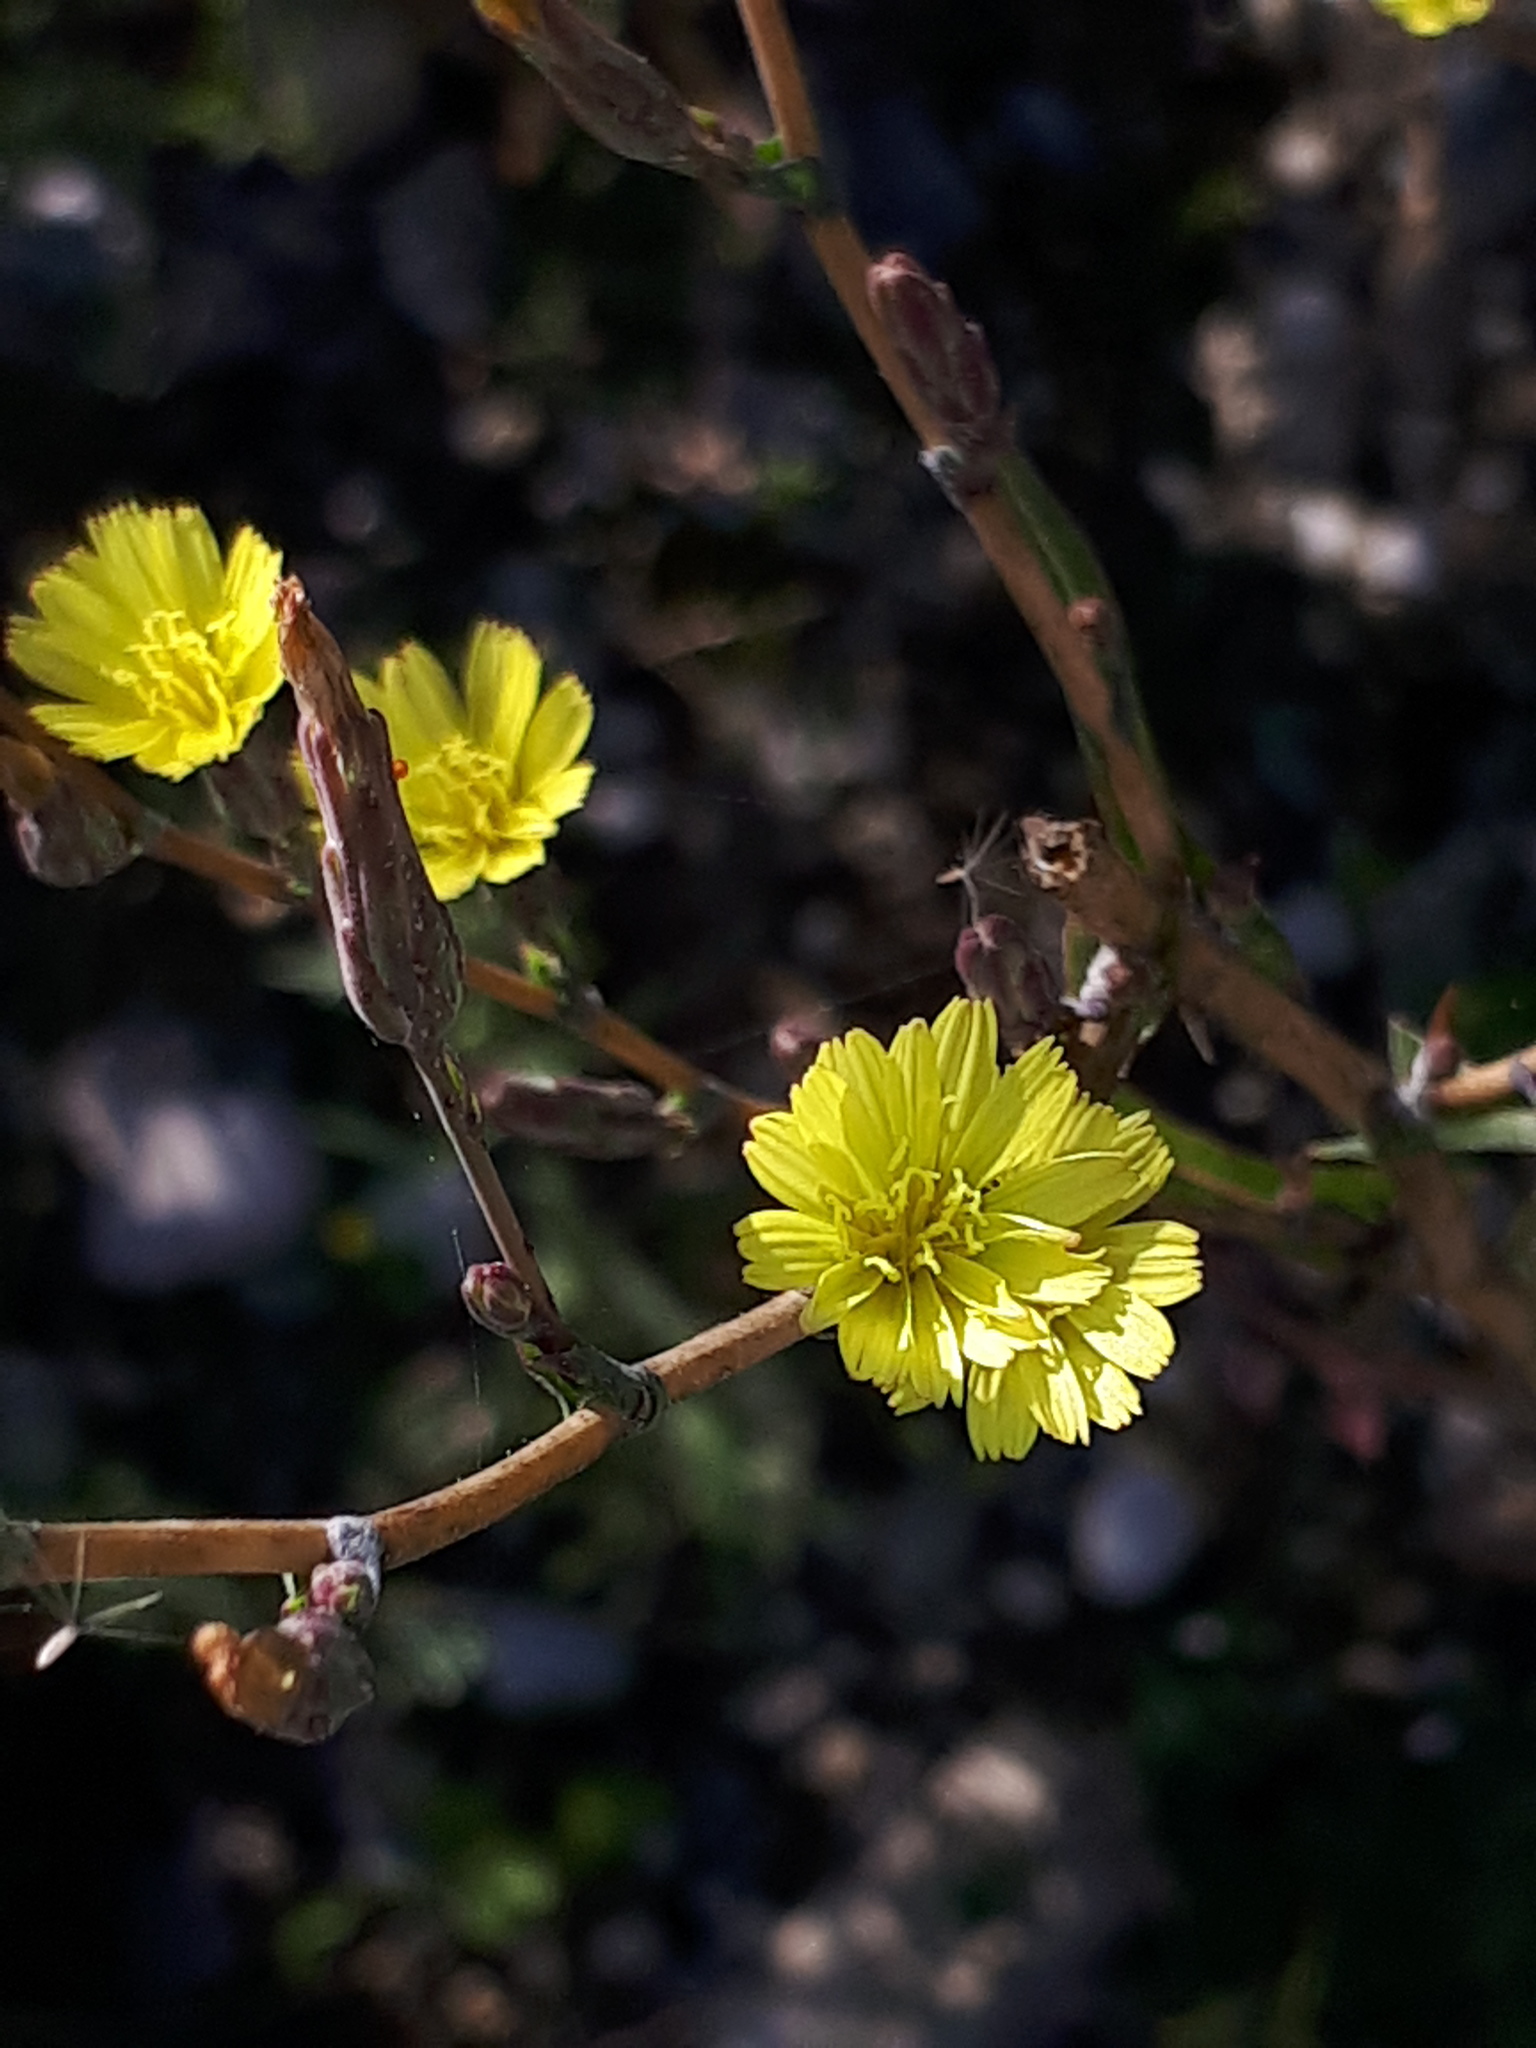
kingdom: Plantae
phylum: Tracheophyta
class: Magnoliopsida
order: Asterales
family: Asteraceae
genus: Lactuca
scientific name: Lactuca serriola
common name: Prickly lettuce
